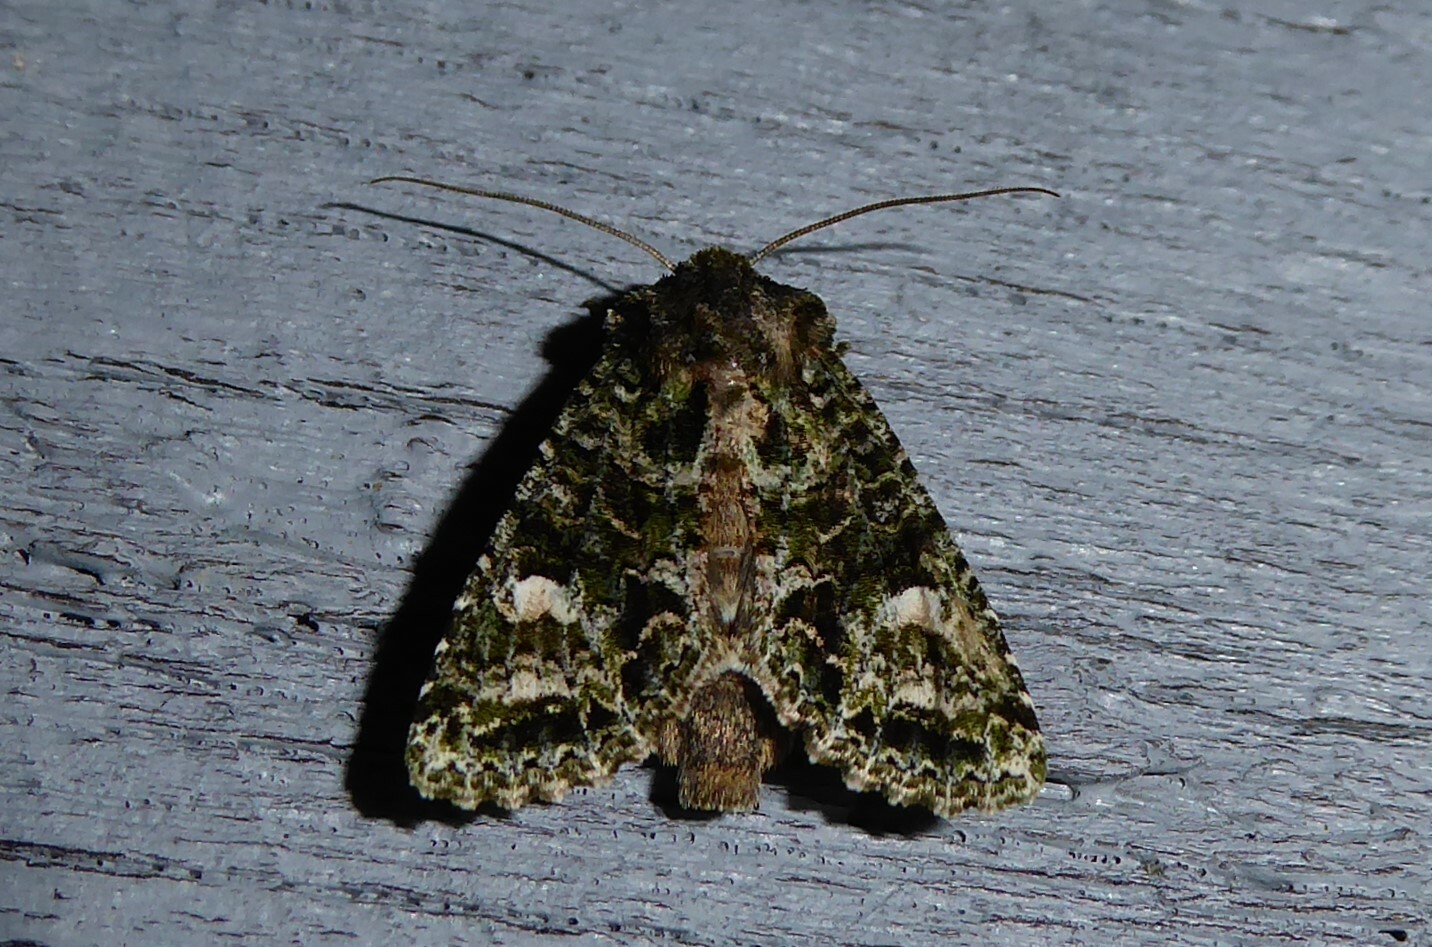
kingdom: Animalia
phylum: Arthropoda
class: Insecta
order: Lepidoptera
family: Noctuidae
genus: Ichneutica
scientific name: Ichneutica
